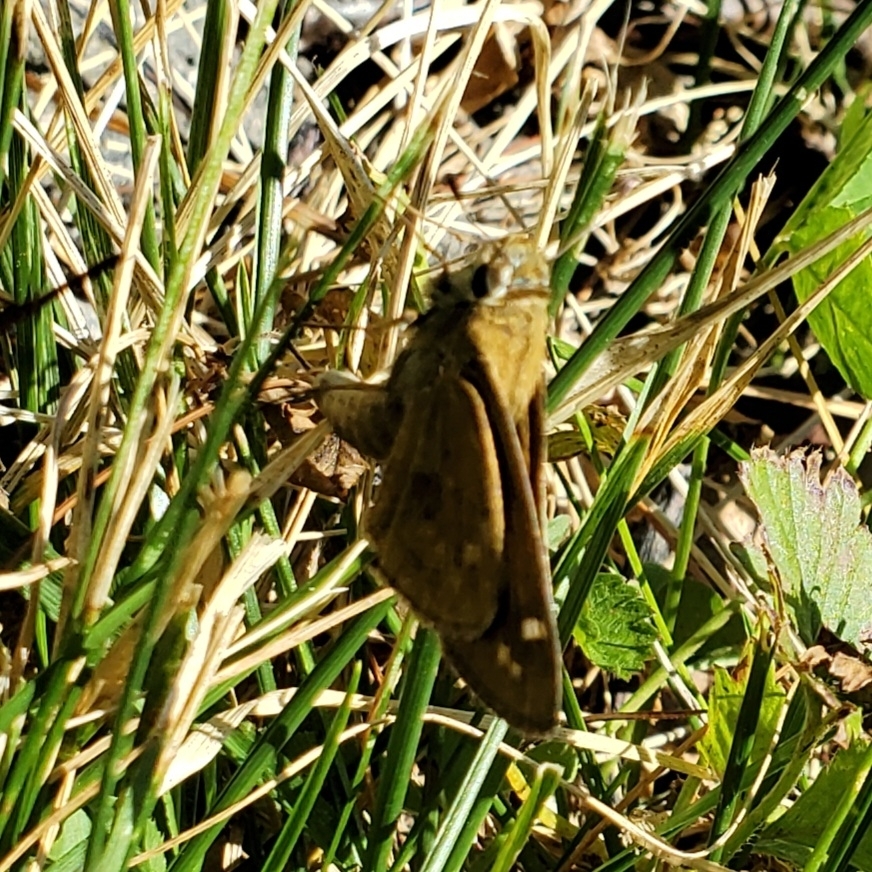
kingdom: Animalia
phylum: Arthropoda
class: Insecta
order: Lepidoptera
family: Hesperiidae
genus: Atalopedes
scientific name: Atalopedes
